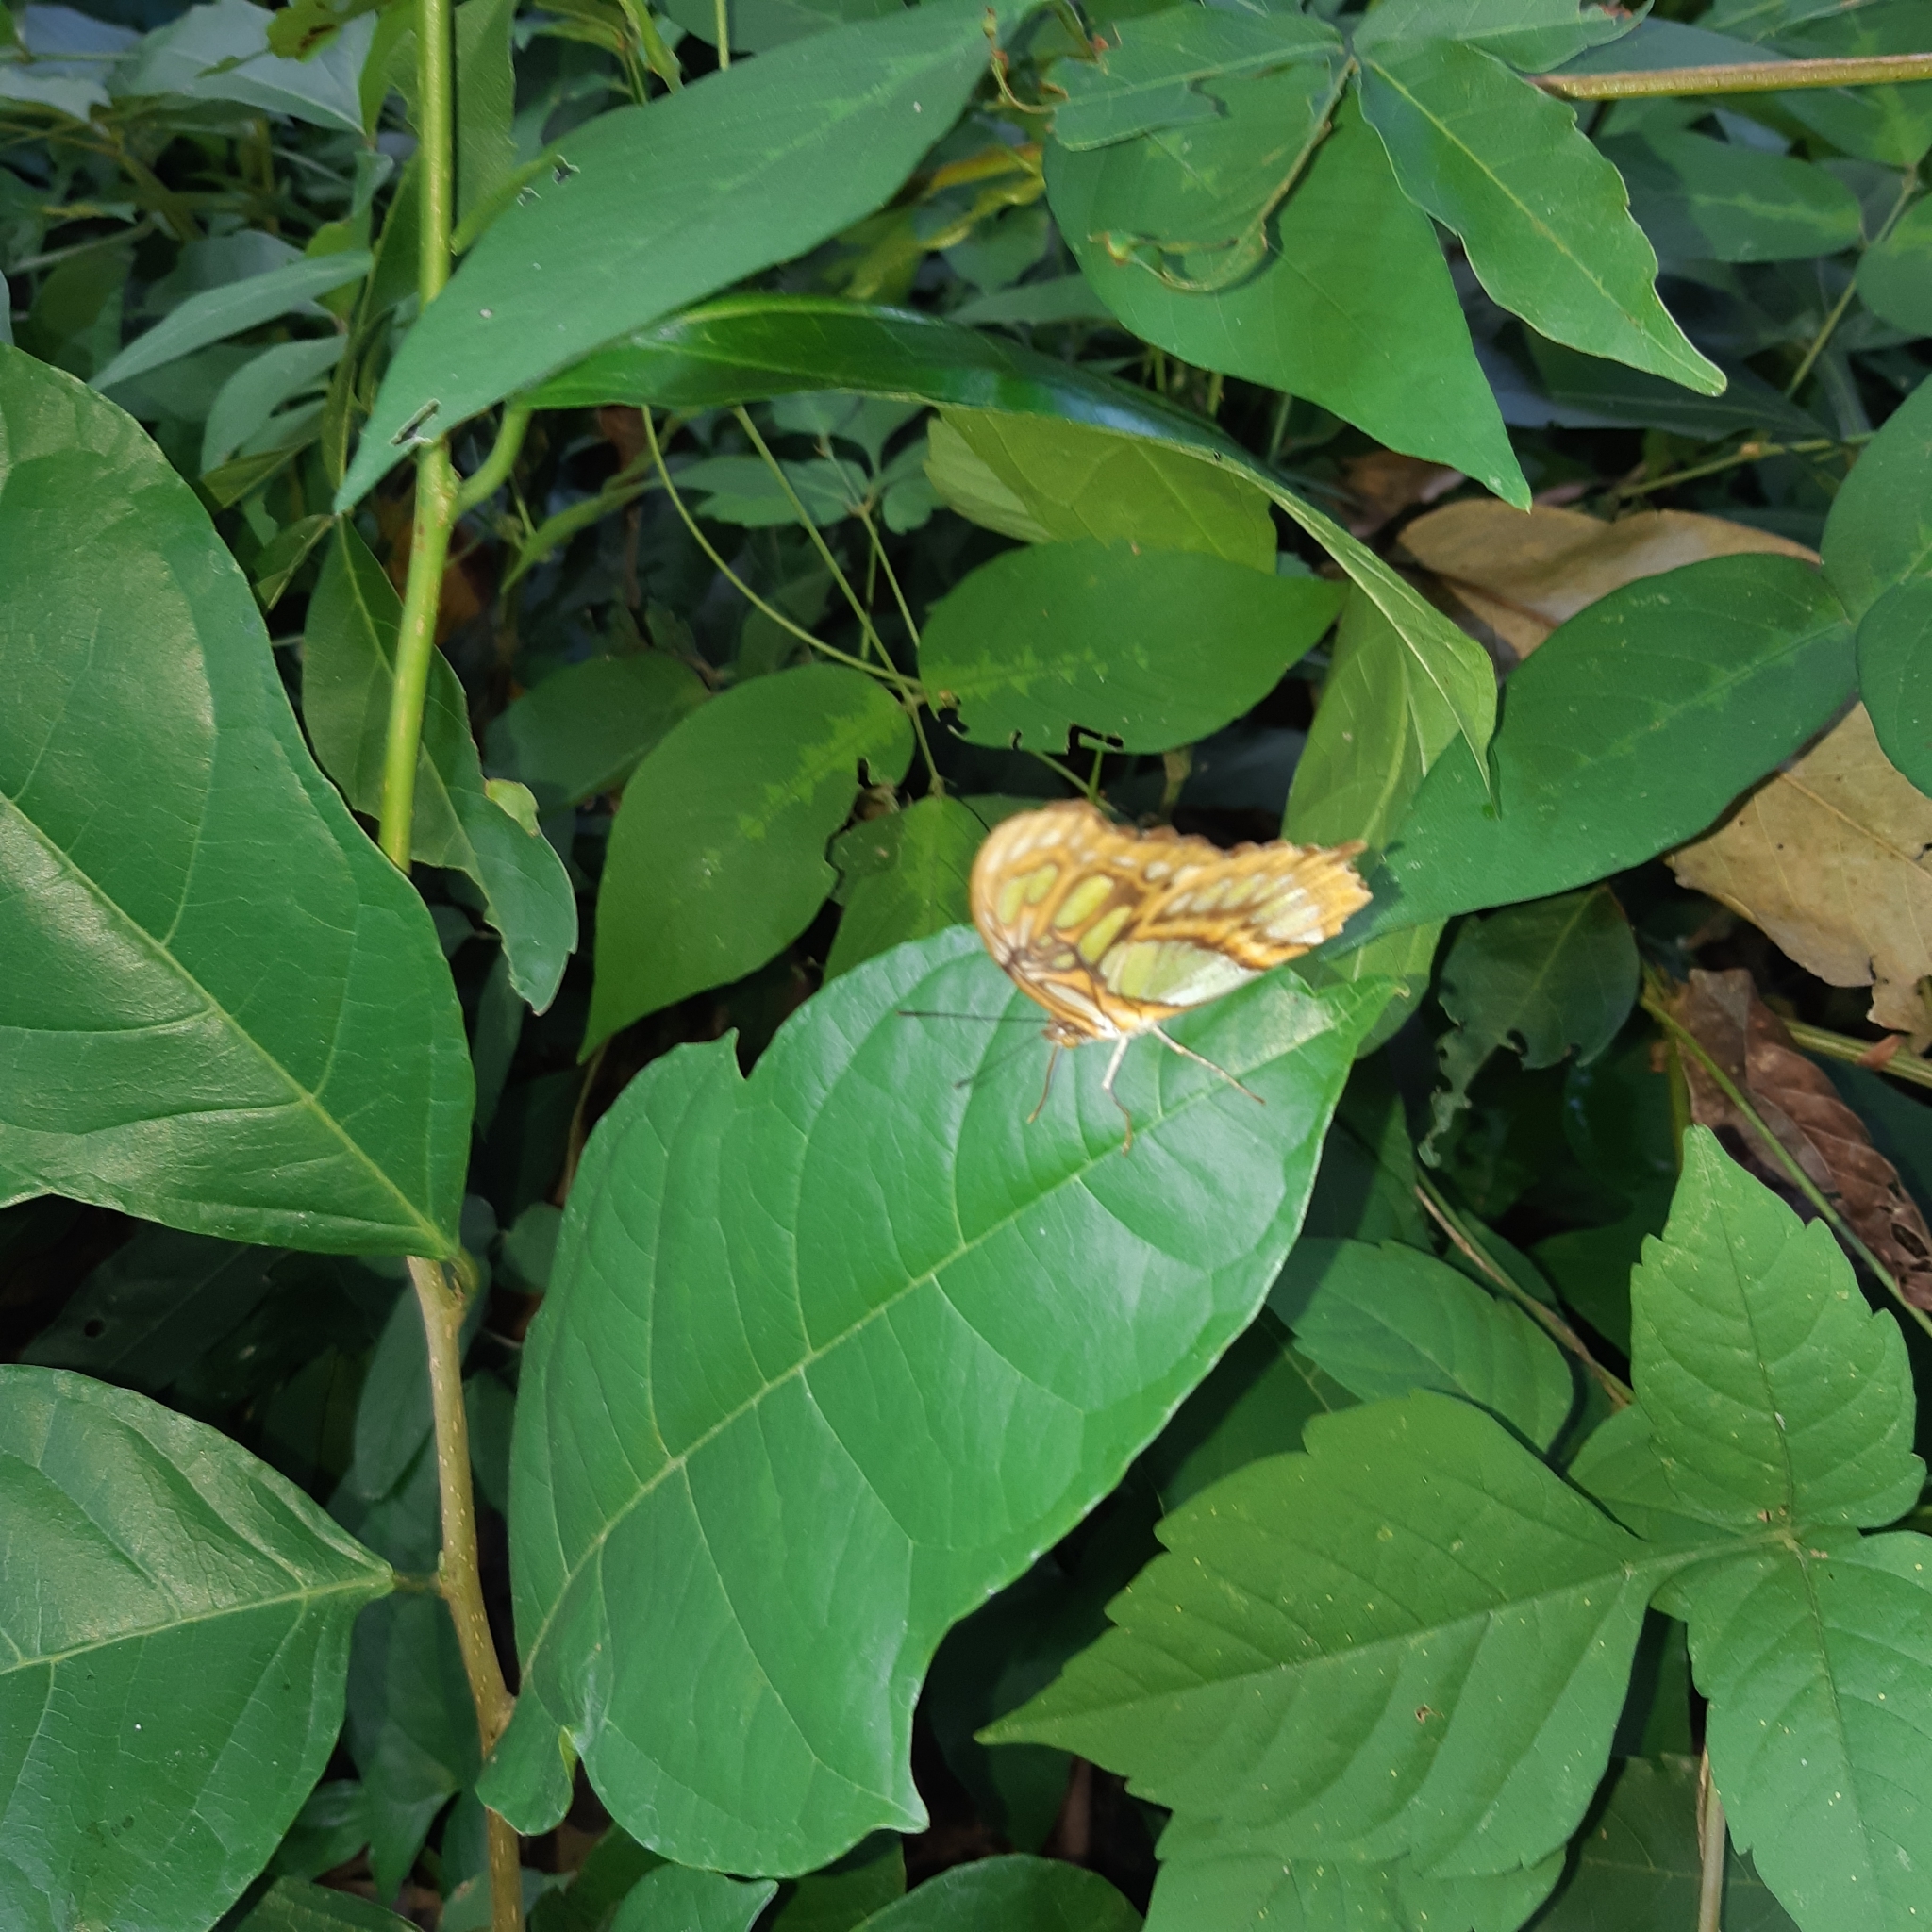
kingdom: Animalia
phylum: Arthropoda
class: Insecta
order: Lepidoptera
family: Nymphalidae
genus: Siproeta
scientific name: Siproeta stelenes
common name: Malachite
